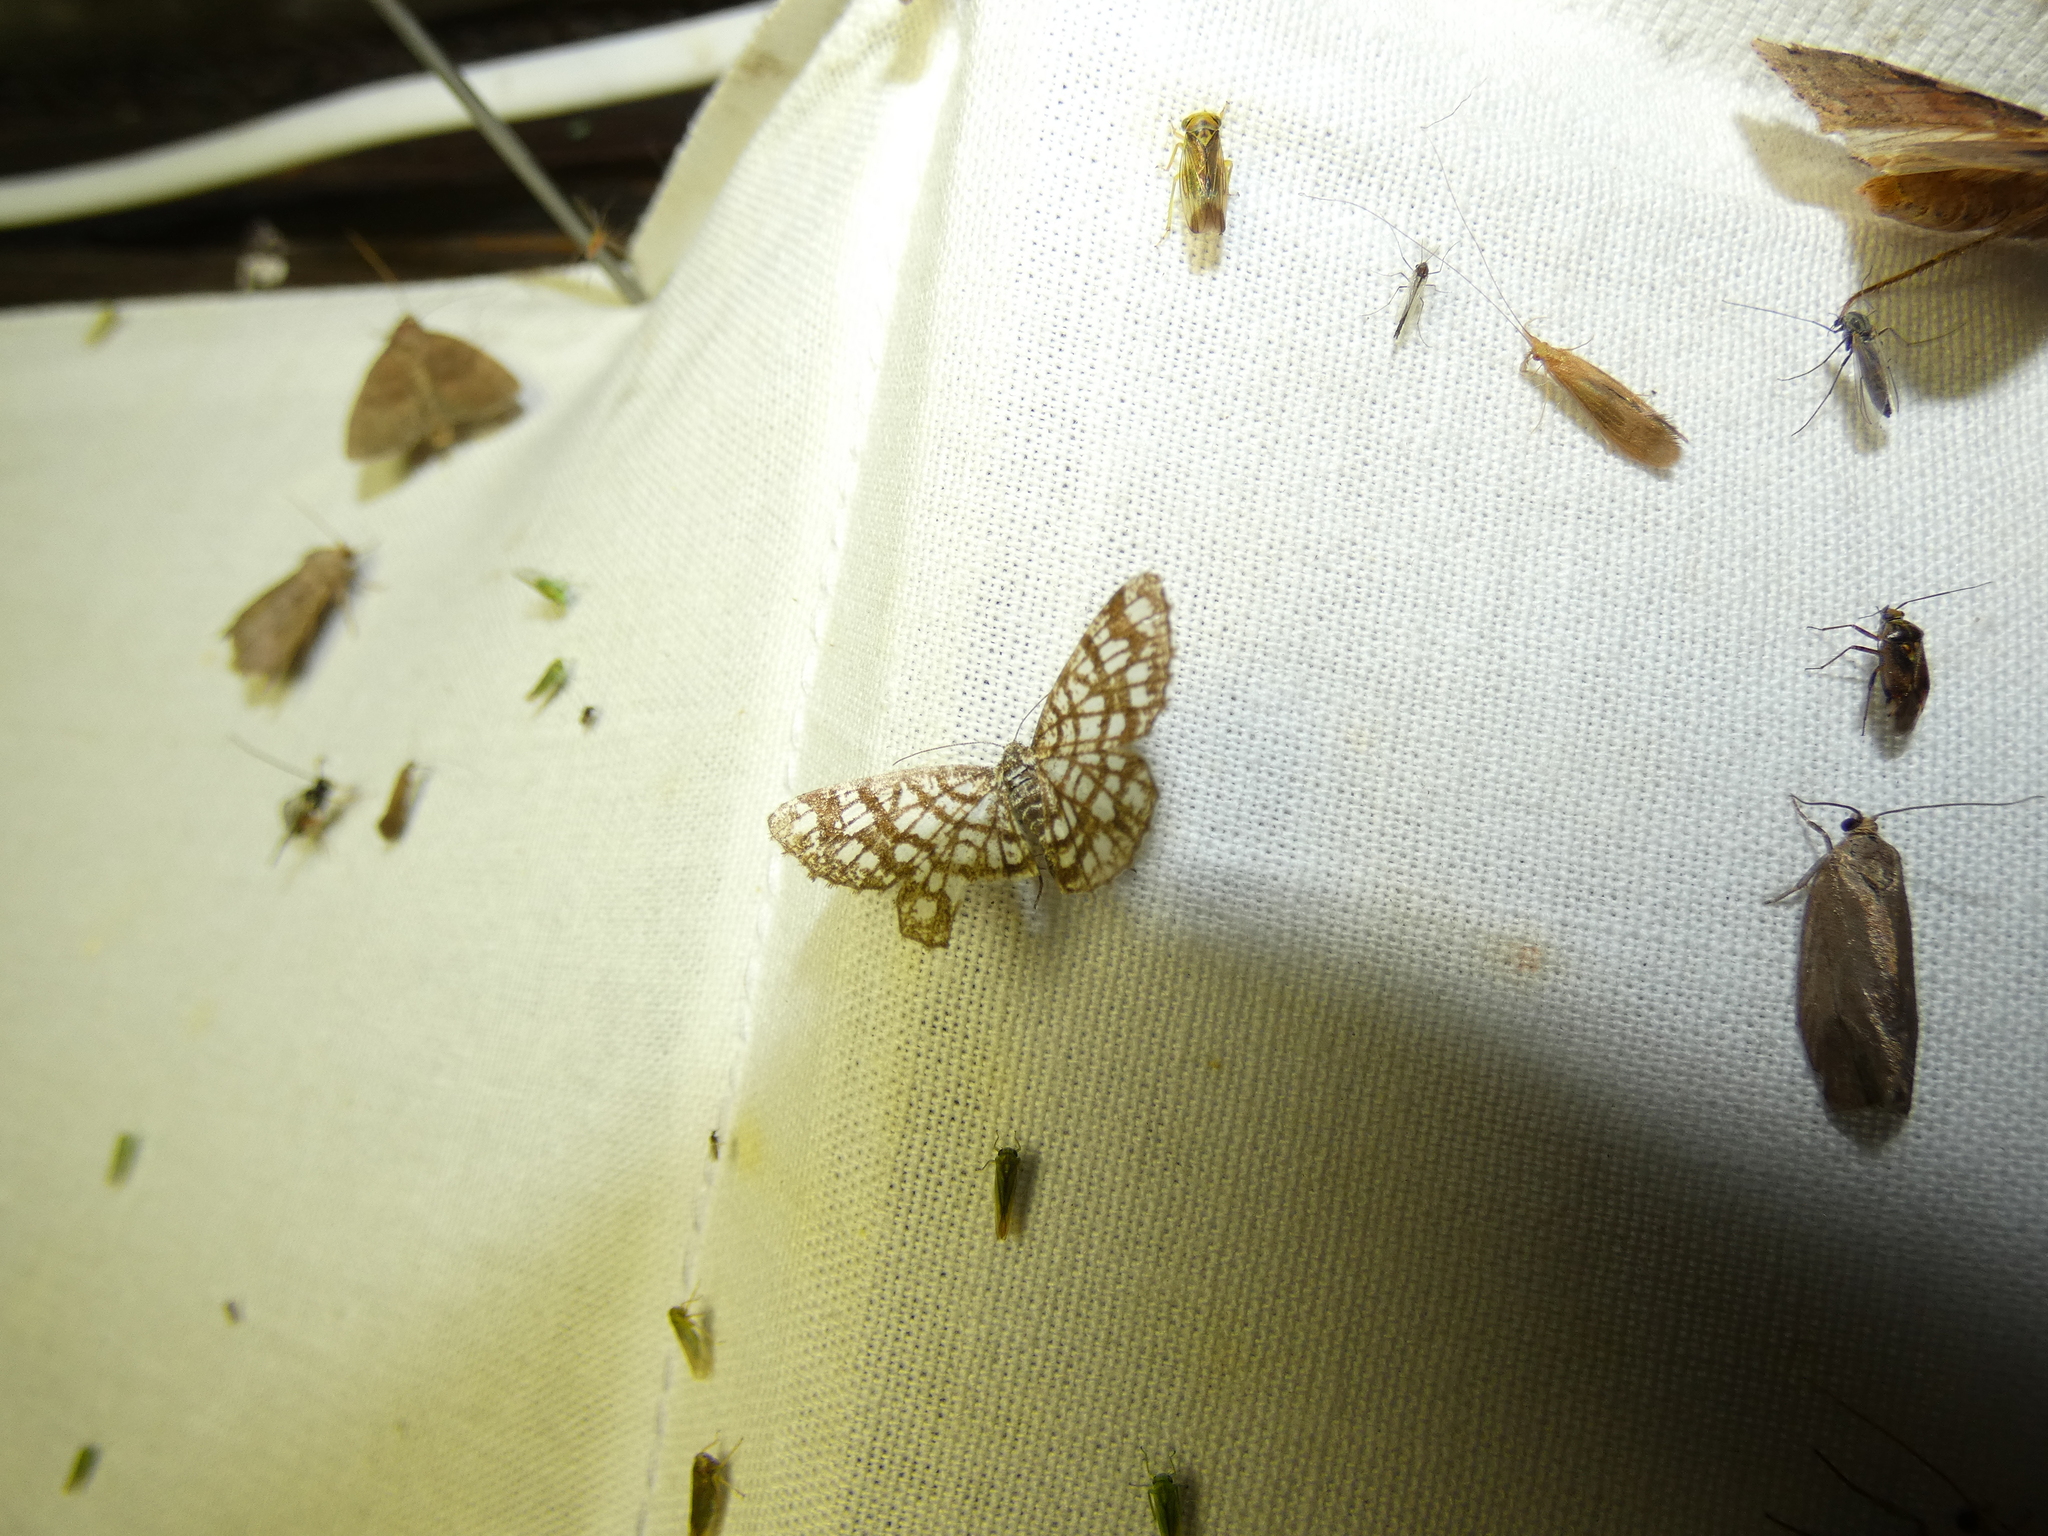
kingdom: Animalia
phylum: Arthropoda
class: Insecta
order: Lepidoptera
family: Geometridae
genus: Chiasmia
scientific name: Chiasmia clathrata
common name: Latticed heath
